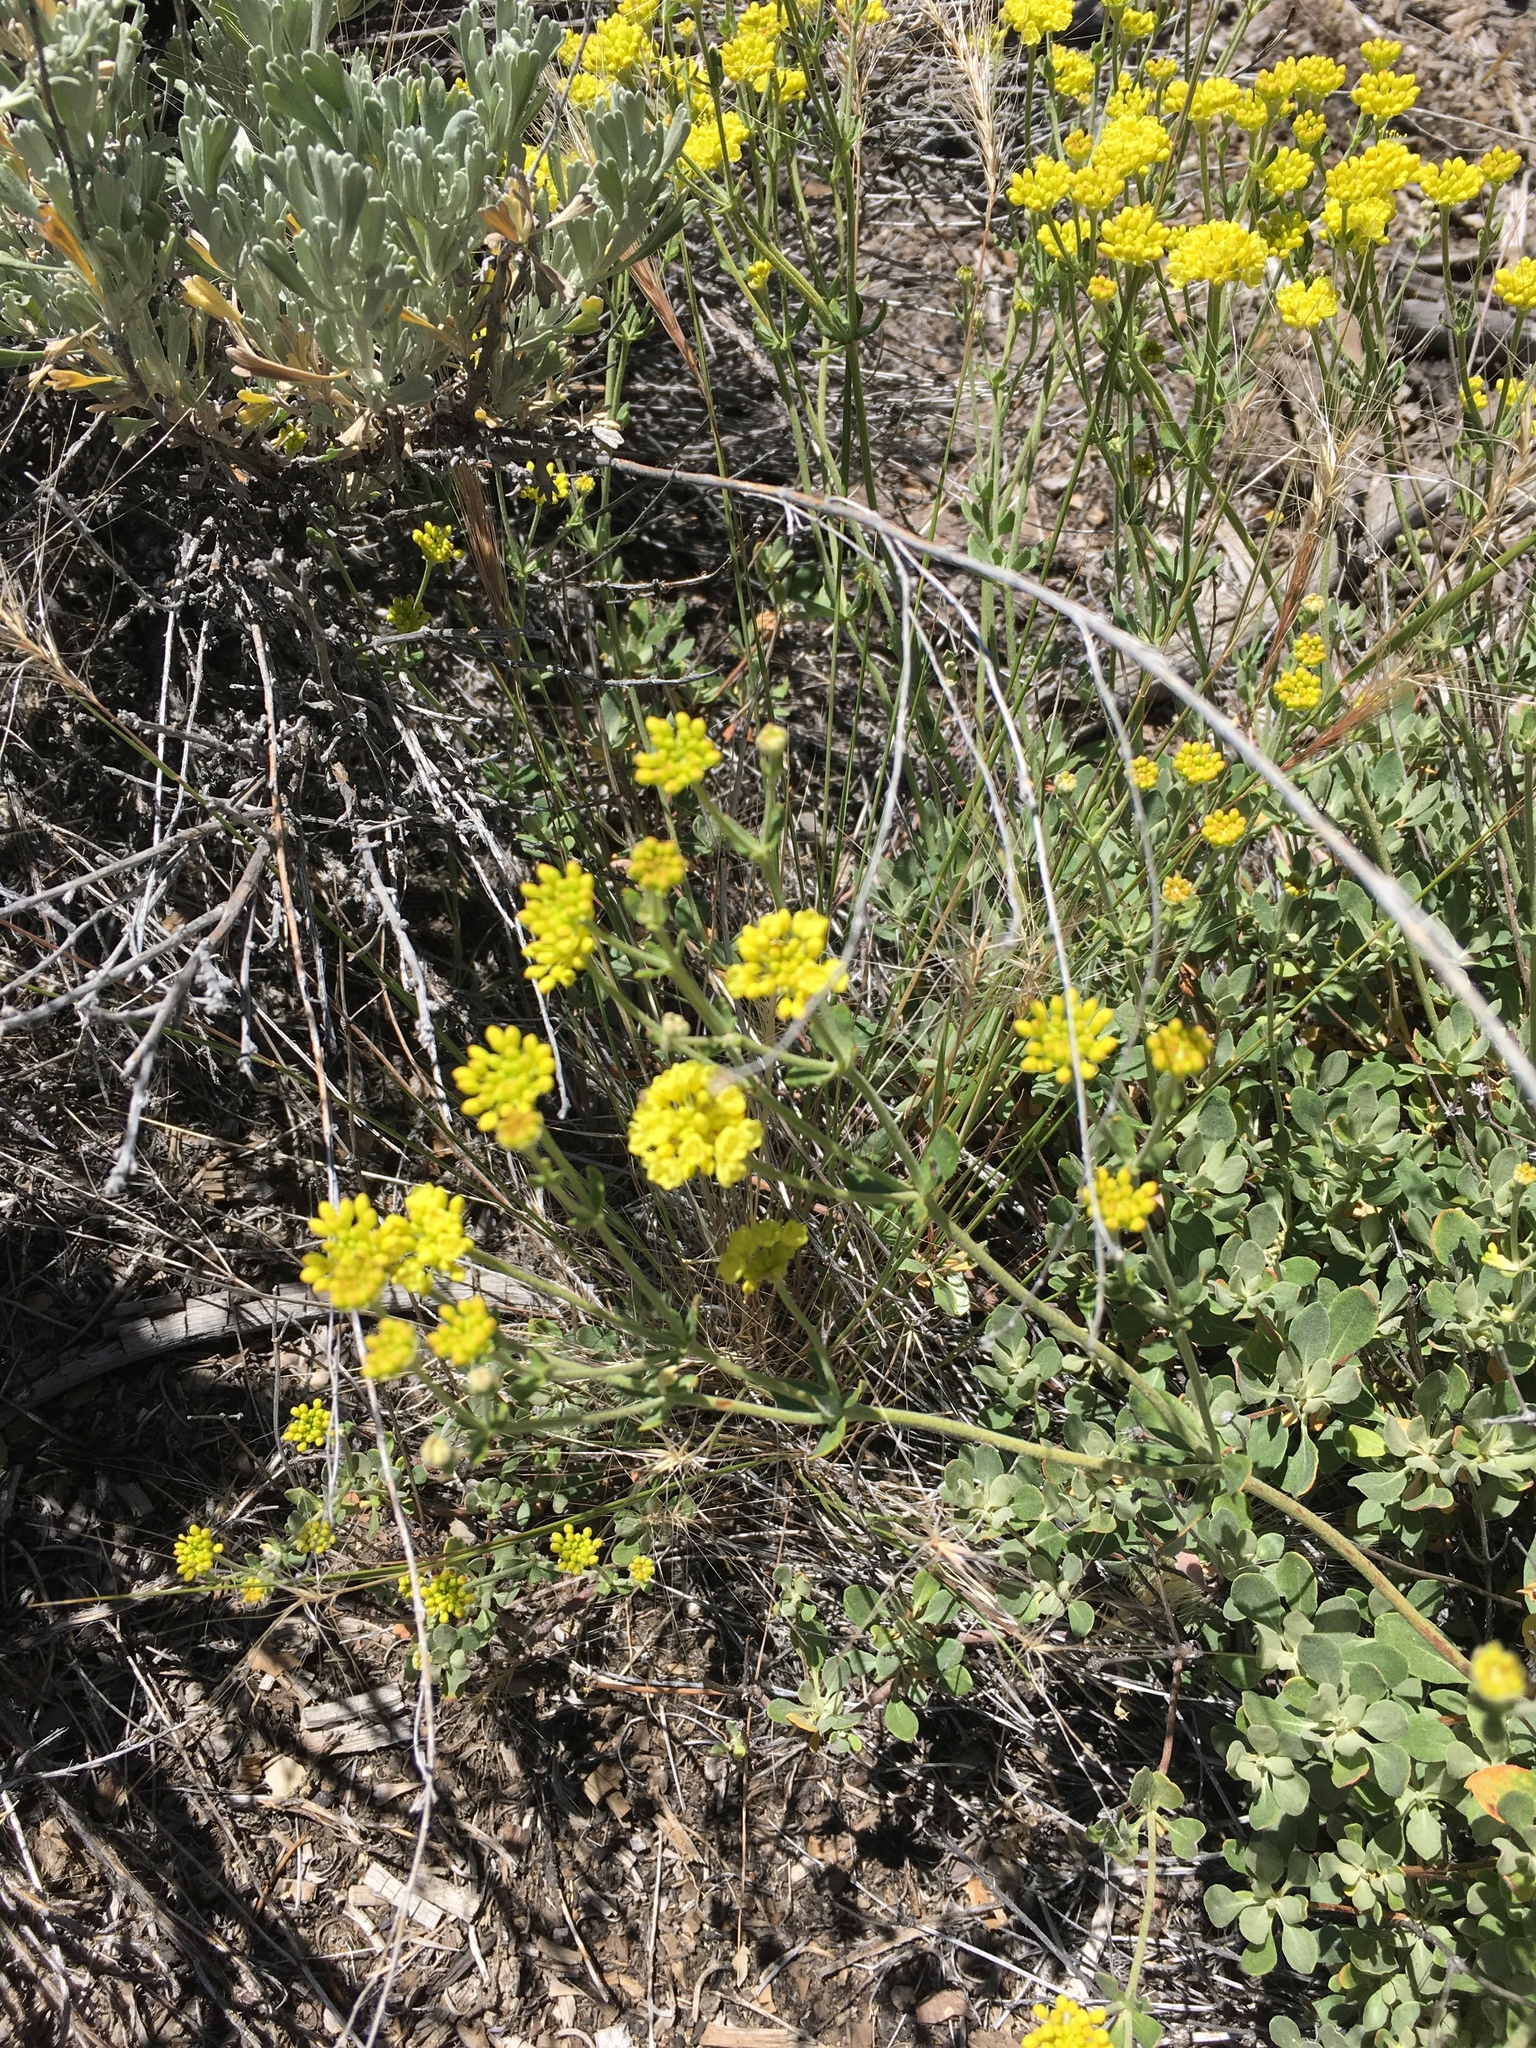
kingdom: Plantae
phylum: Tracheophyta
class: Magnoliopsida
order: Caryophyllales
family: Polygonaceae
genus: Eriogonum
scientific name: Eriogonum umbellatum
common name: Sulfur-buckwheat
